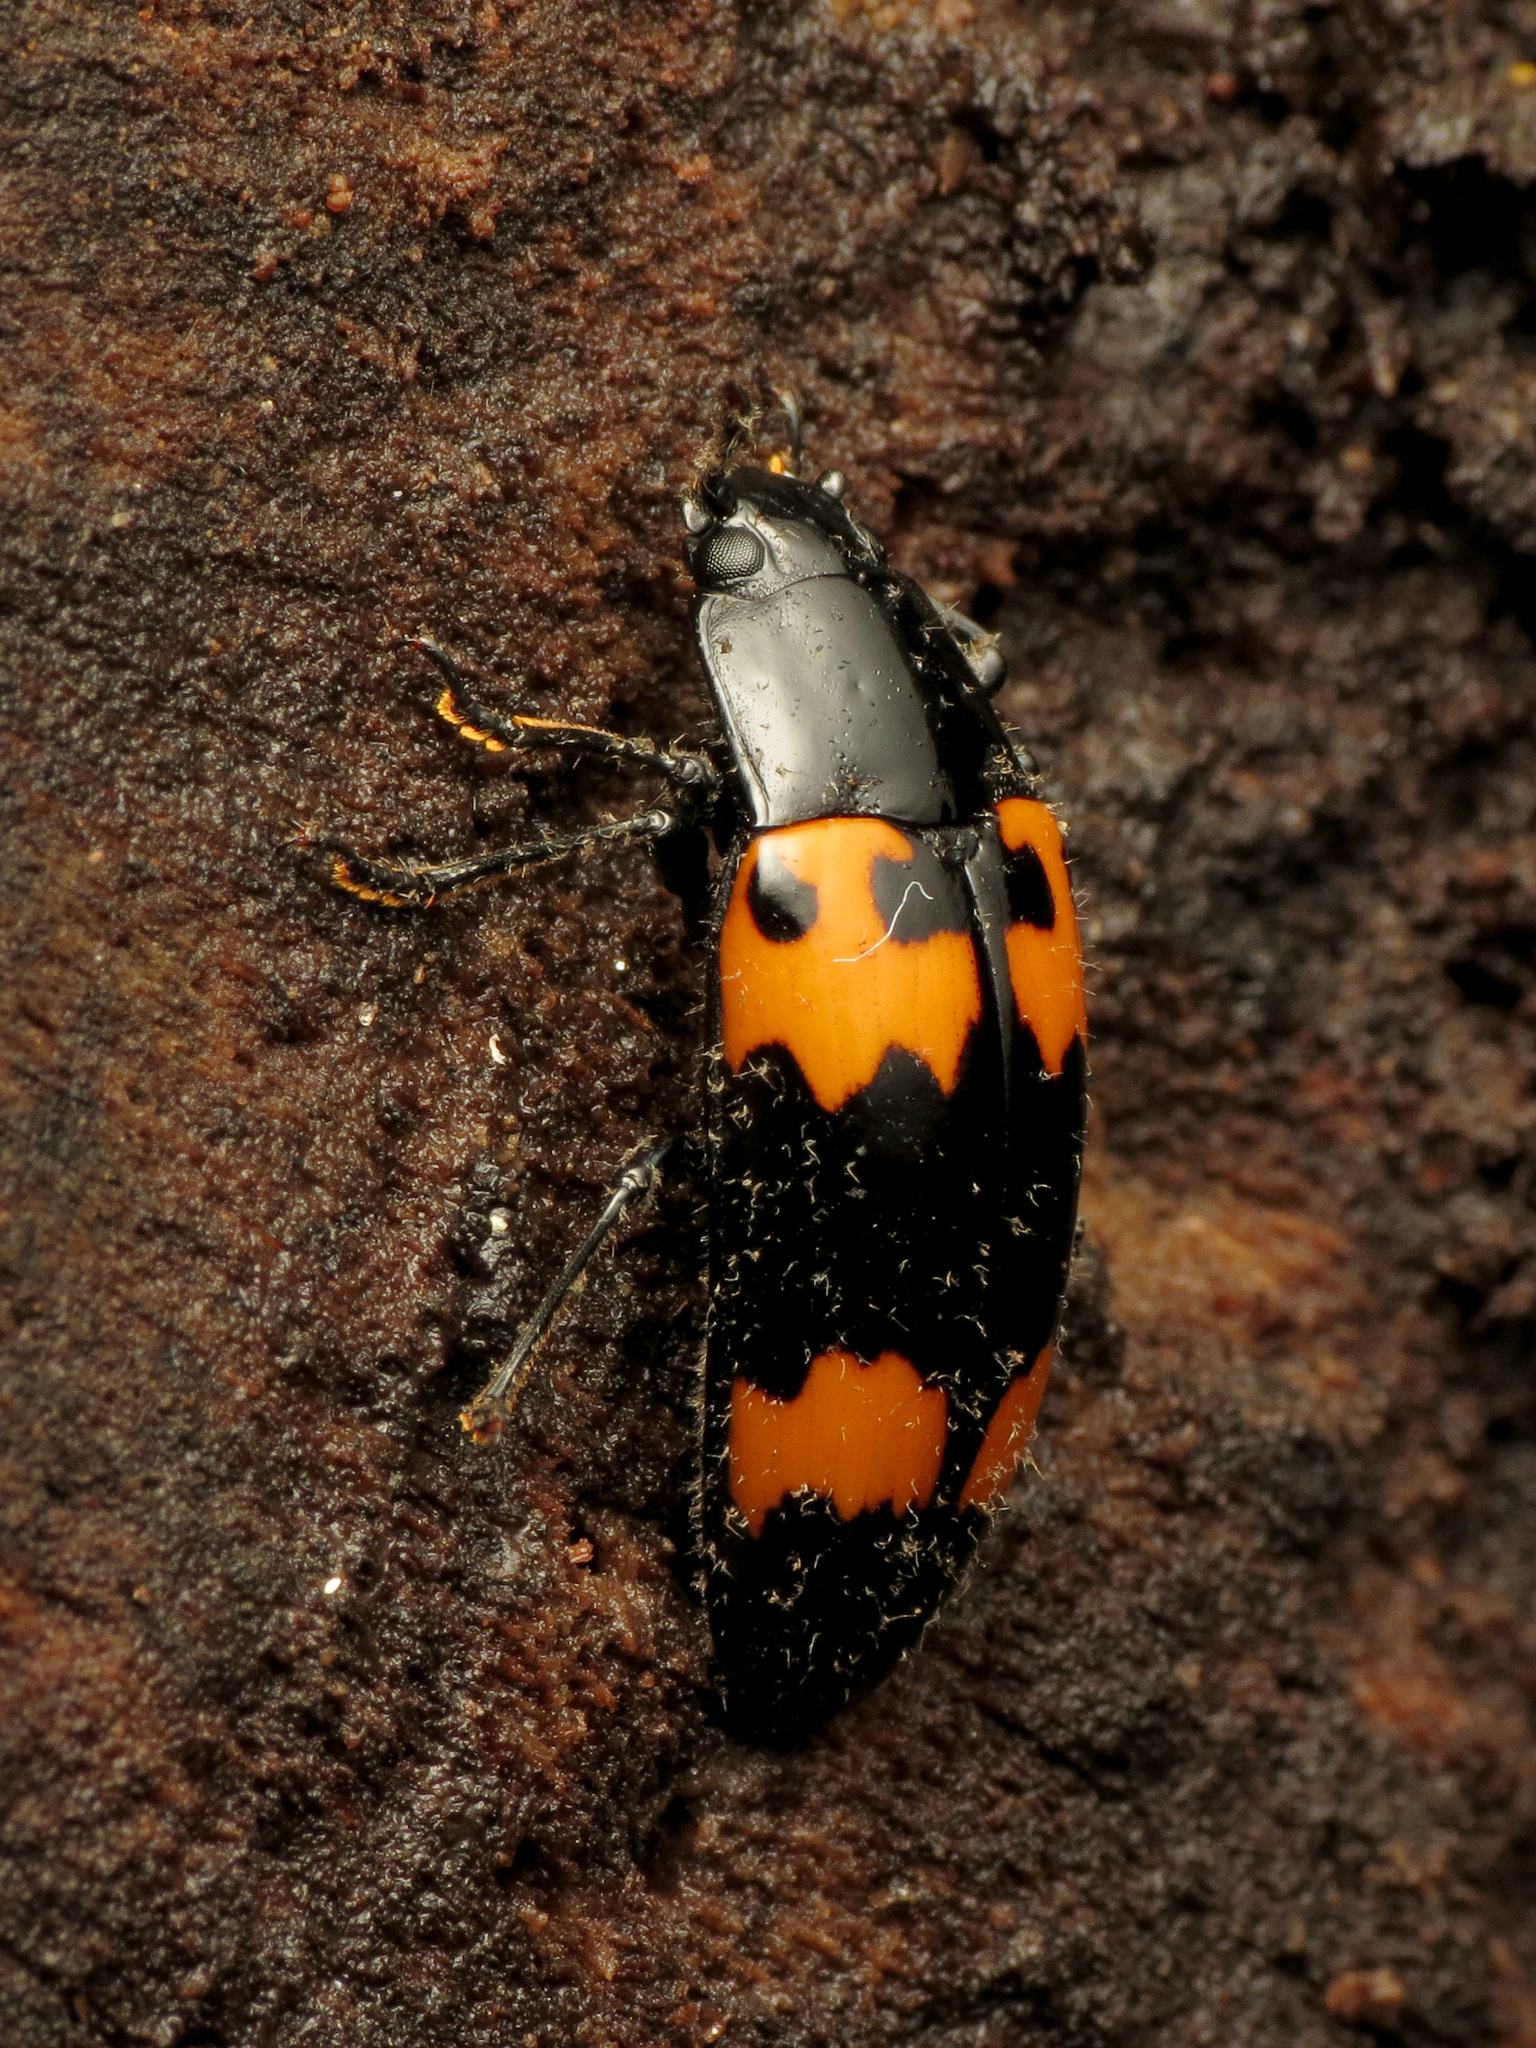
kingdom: Animalia
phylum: Arthropoda
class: Insecta
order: Coleoptera
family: Erotylidae
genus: Megalodacne
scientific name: Megalodacne heros
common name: Pleasing fungus beetle
